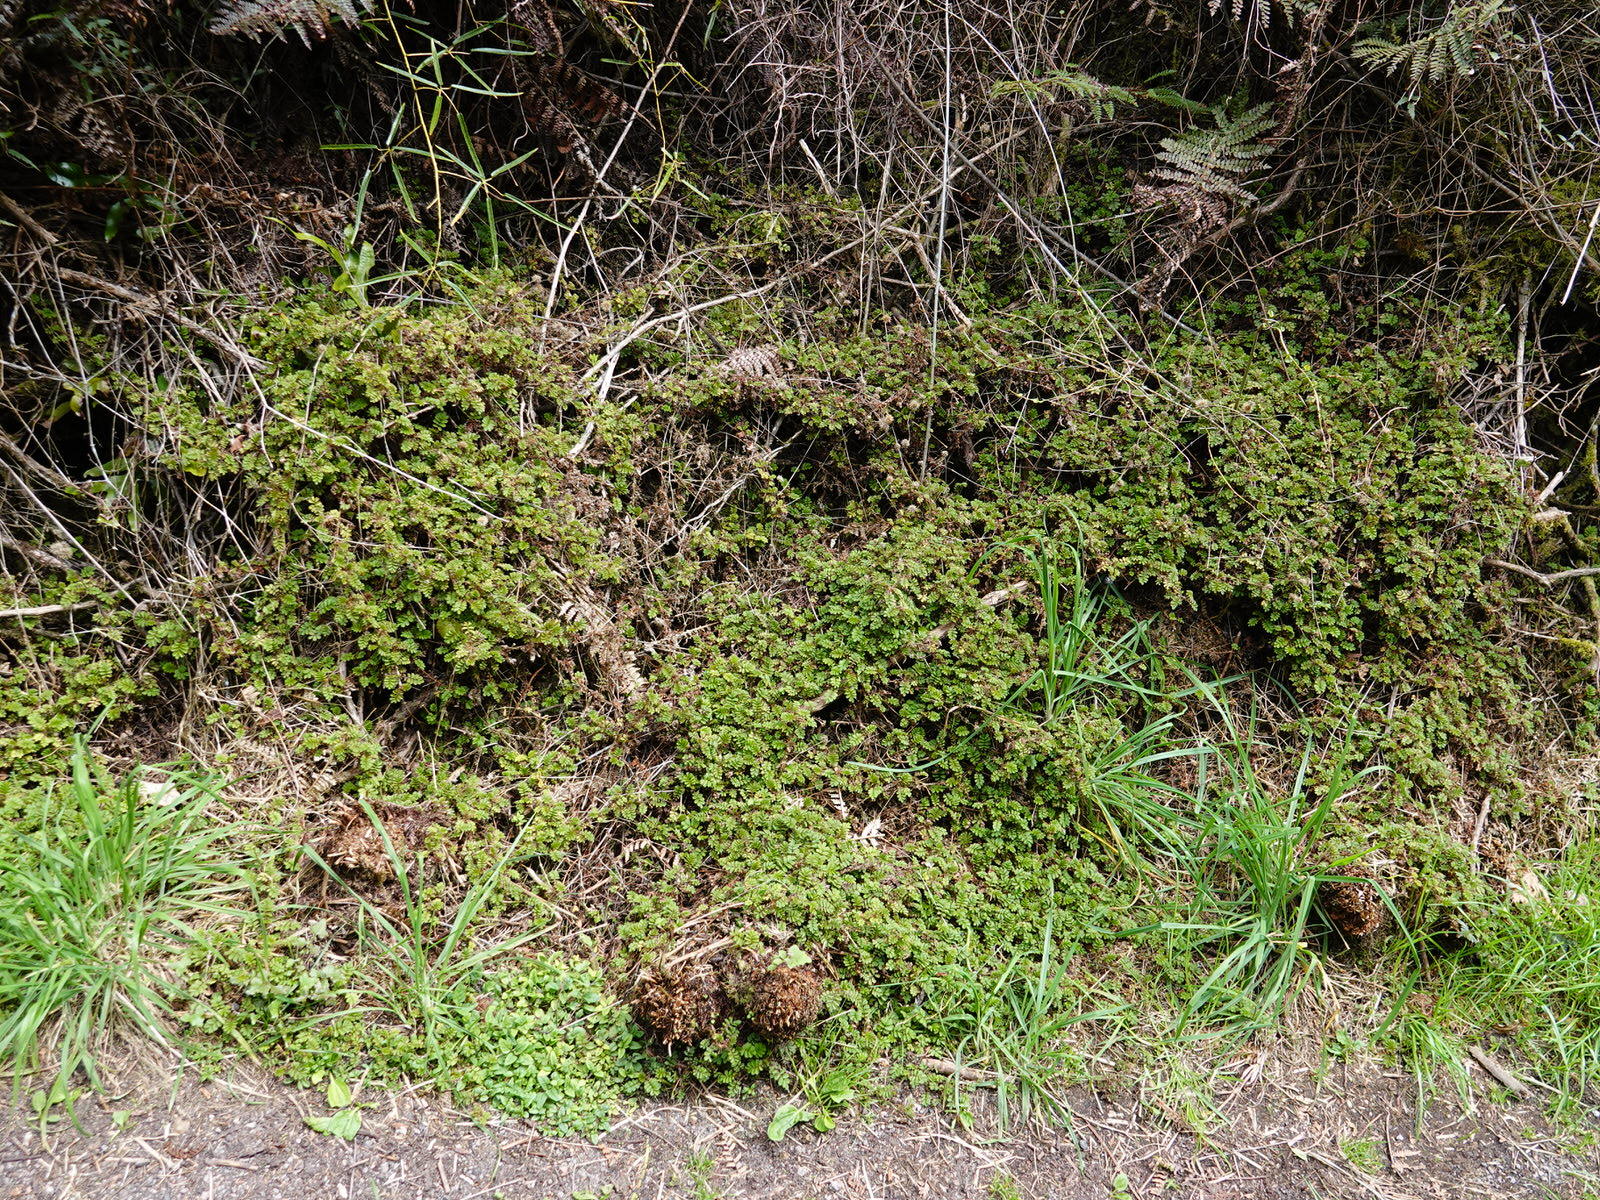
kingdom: Plantae
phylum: Tracheophyta
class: Magnoliopsida
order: Rosales
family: Rosaceae
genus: Acaena
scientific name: Acaena anserinifolia
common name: Bronze pirri-pirri-bur
